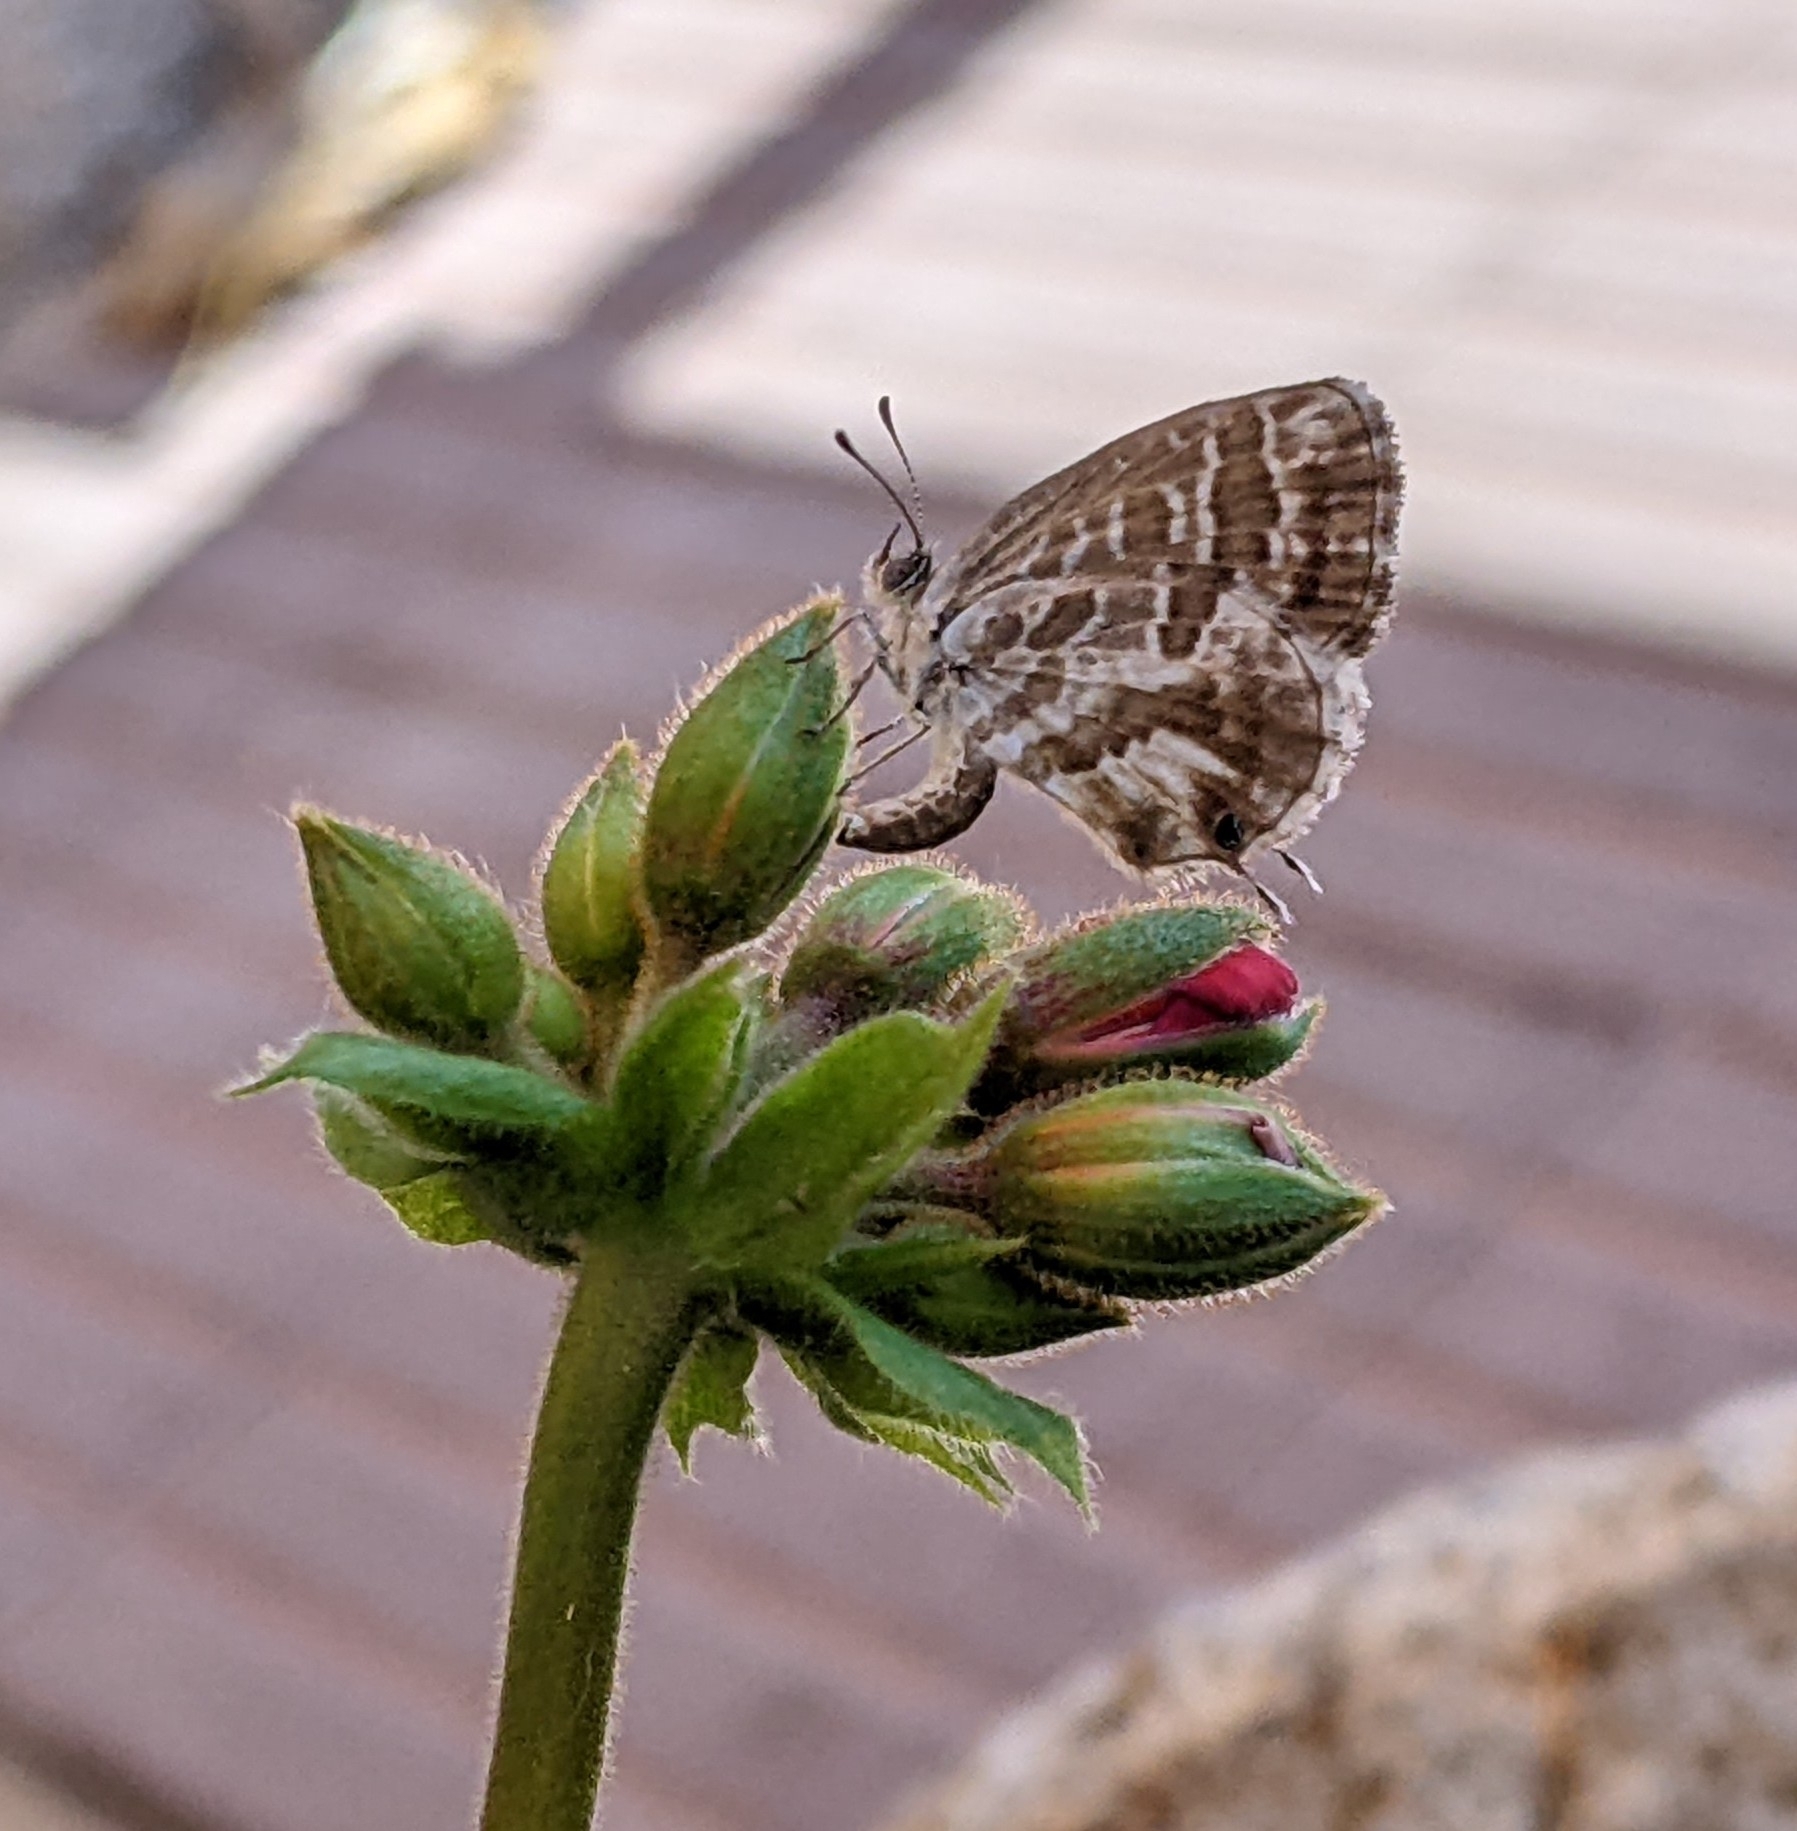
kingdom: Animalia
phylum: Arthropoda
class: Insecta
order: Lepidoptera
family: Lycaenidae
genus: Cacyreus
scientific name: Cacyreus marshalli
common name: Geranium bronze
